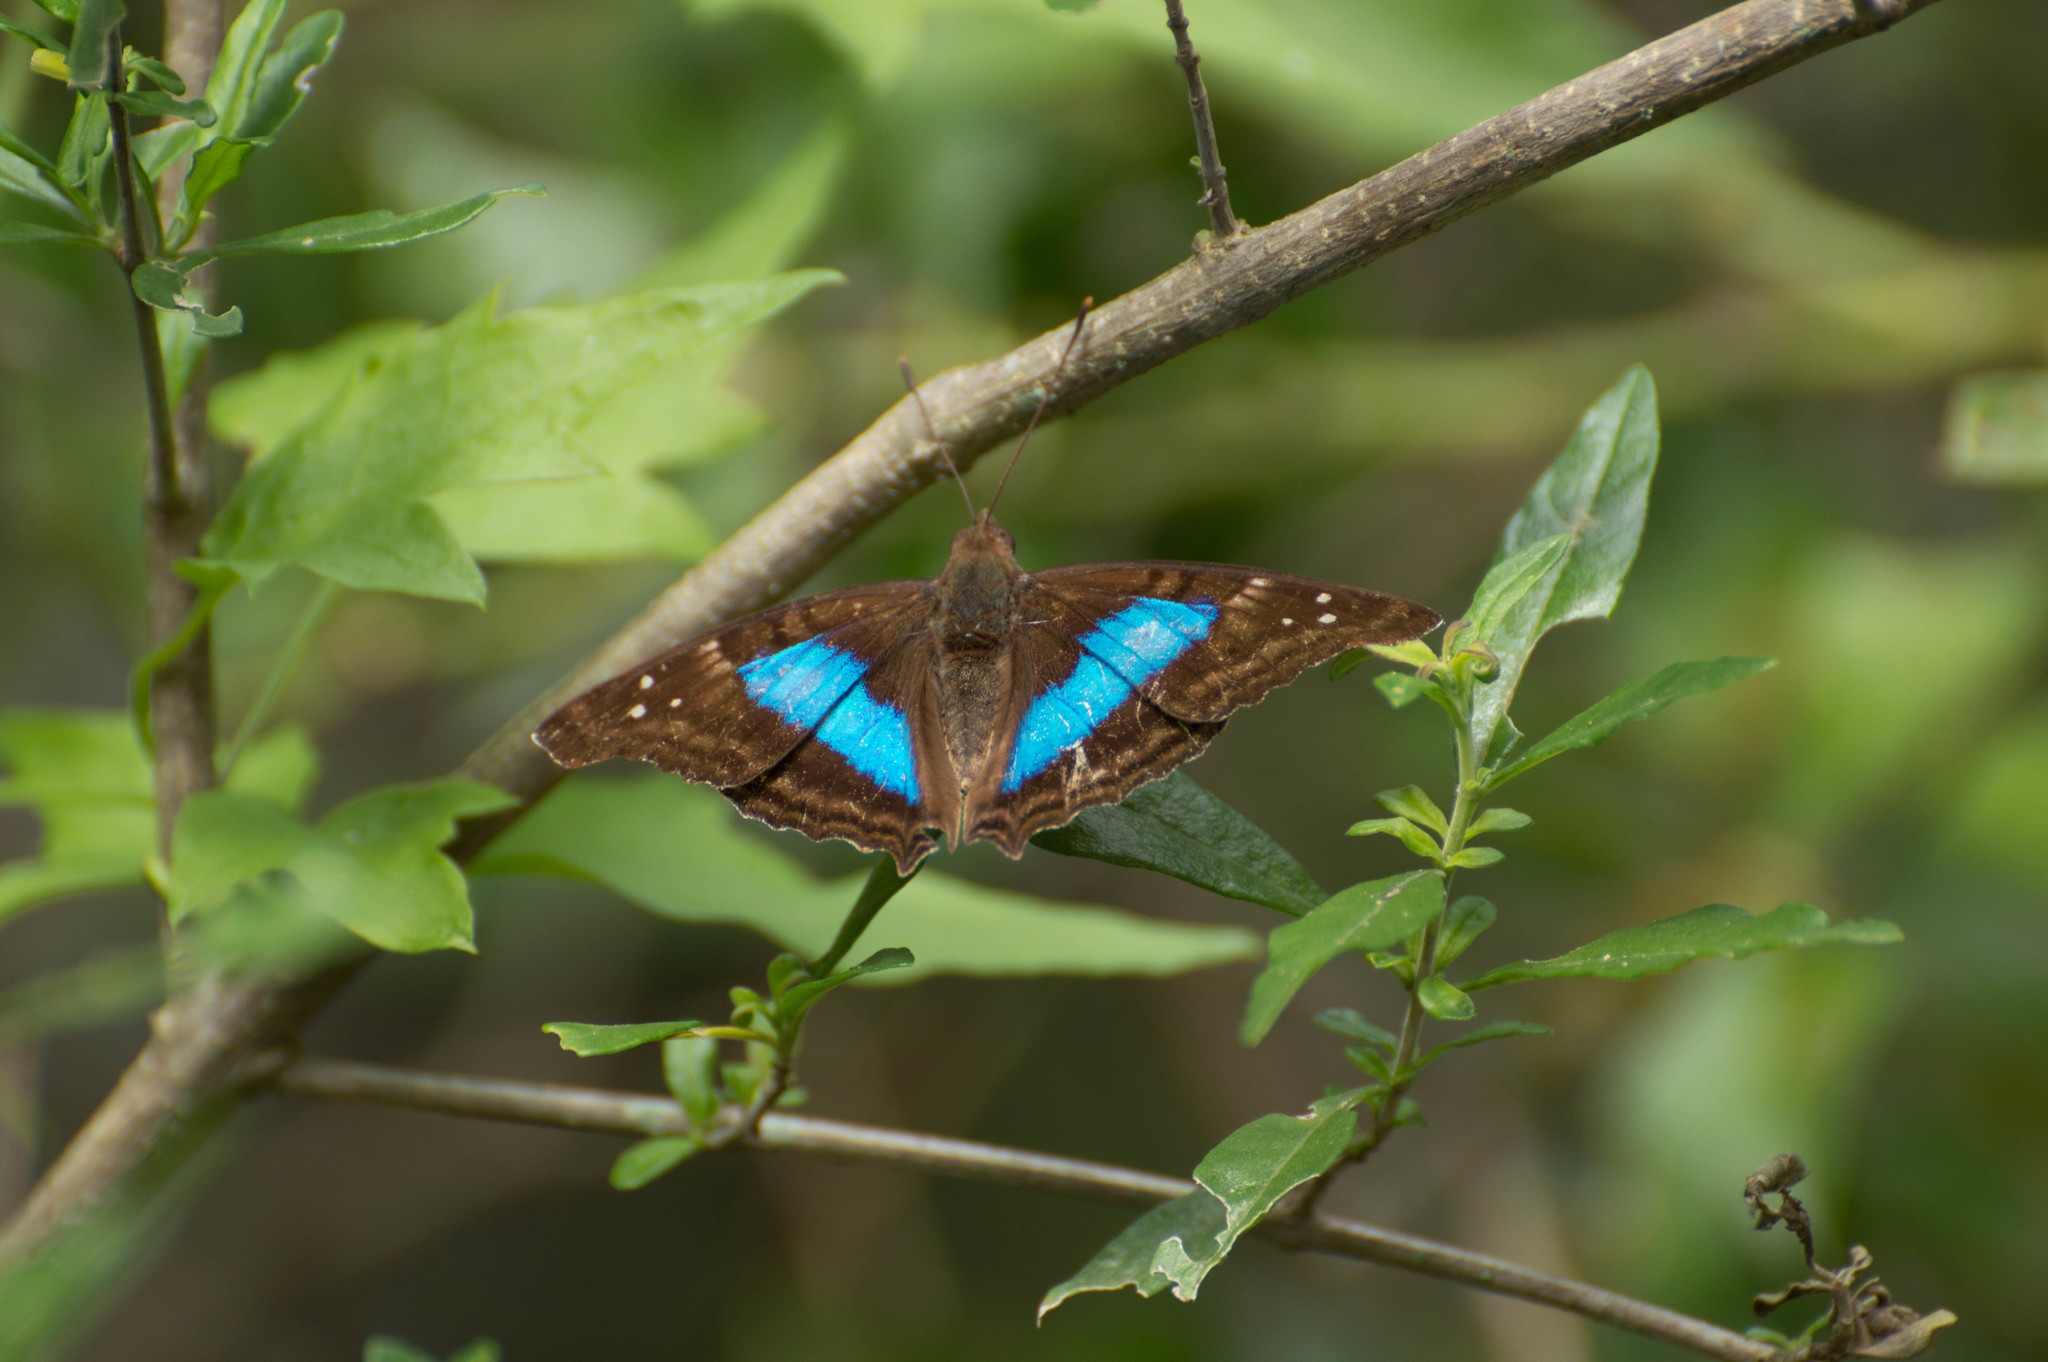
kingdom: Animalia
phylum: Arthropoda
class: Insecta
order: Lepidoptera
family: Nymphalidae
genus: Doxocopa
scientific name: Doxocopa laurentia
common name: Turquoise emperor
